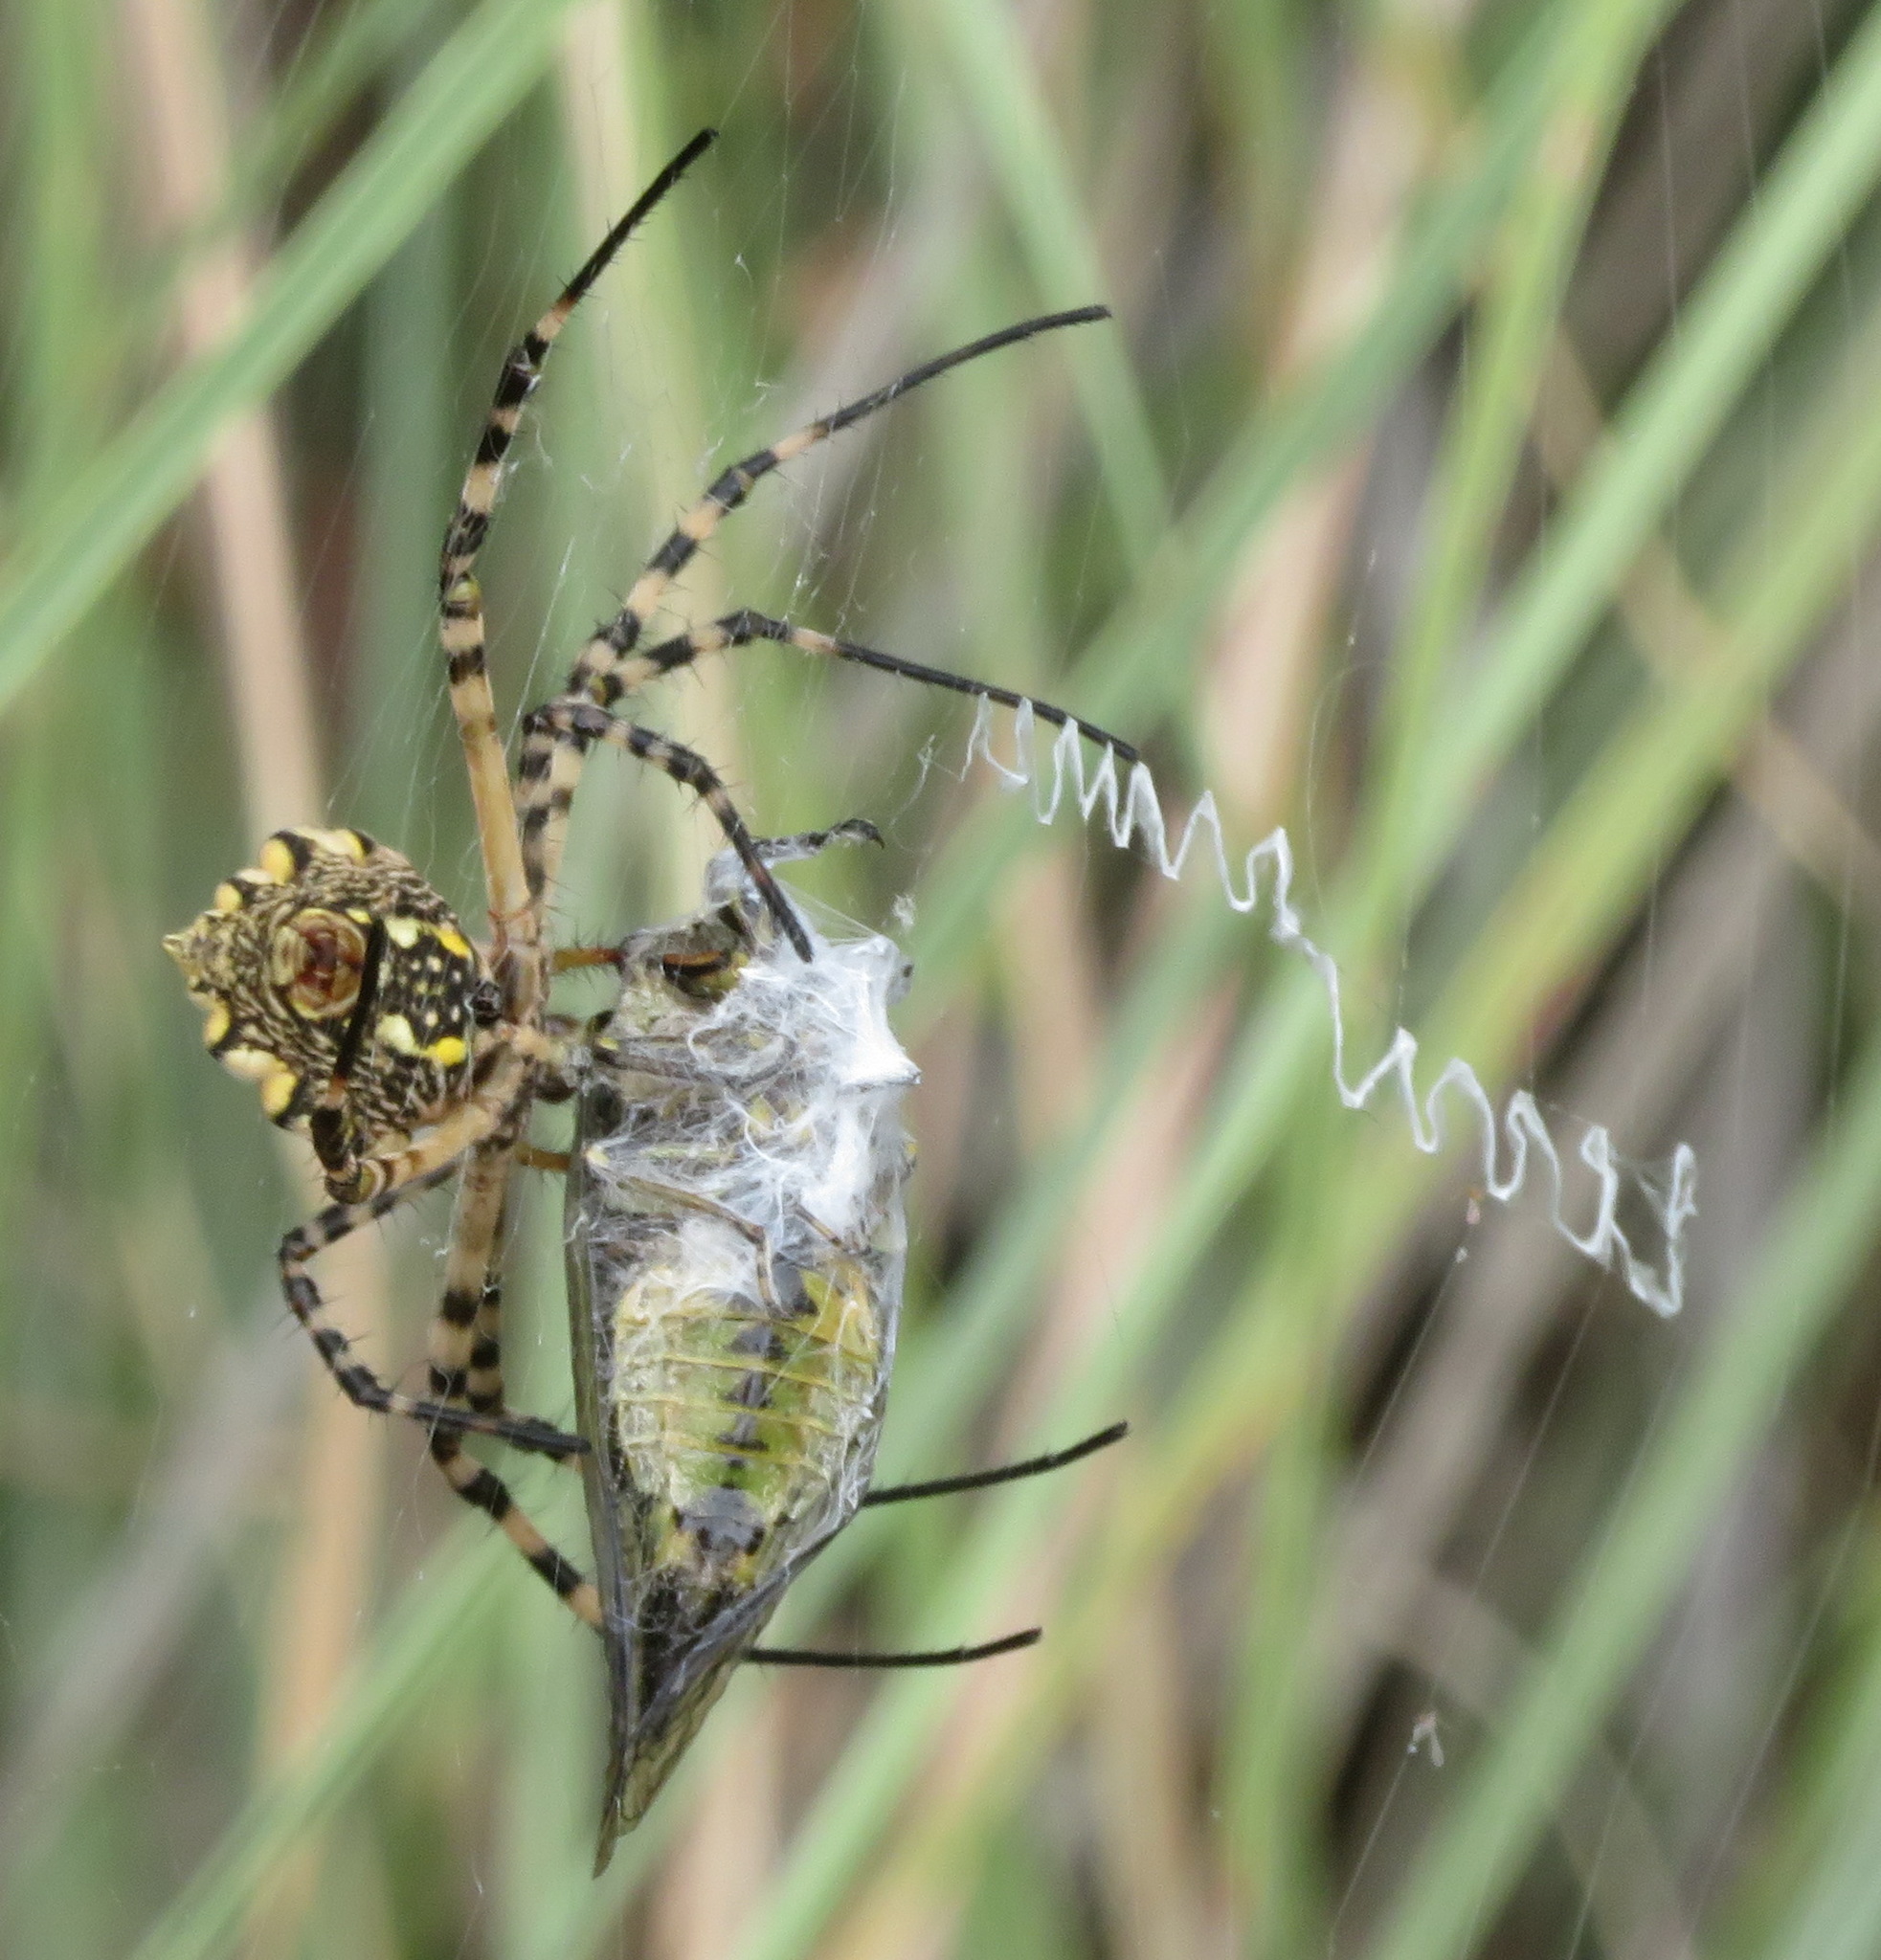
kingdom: Animalia
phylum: Arthropoda
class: Arachnida
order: Araneae
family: Araneidae
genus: Argiope
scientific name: Argiope australis
